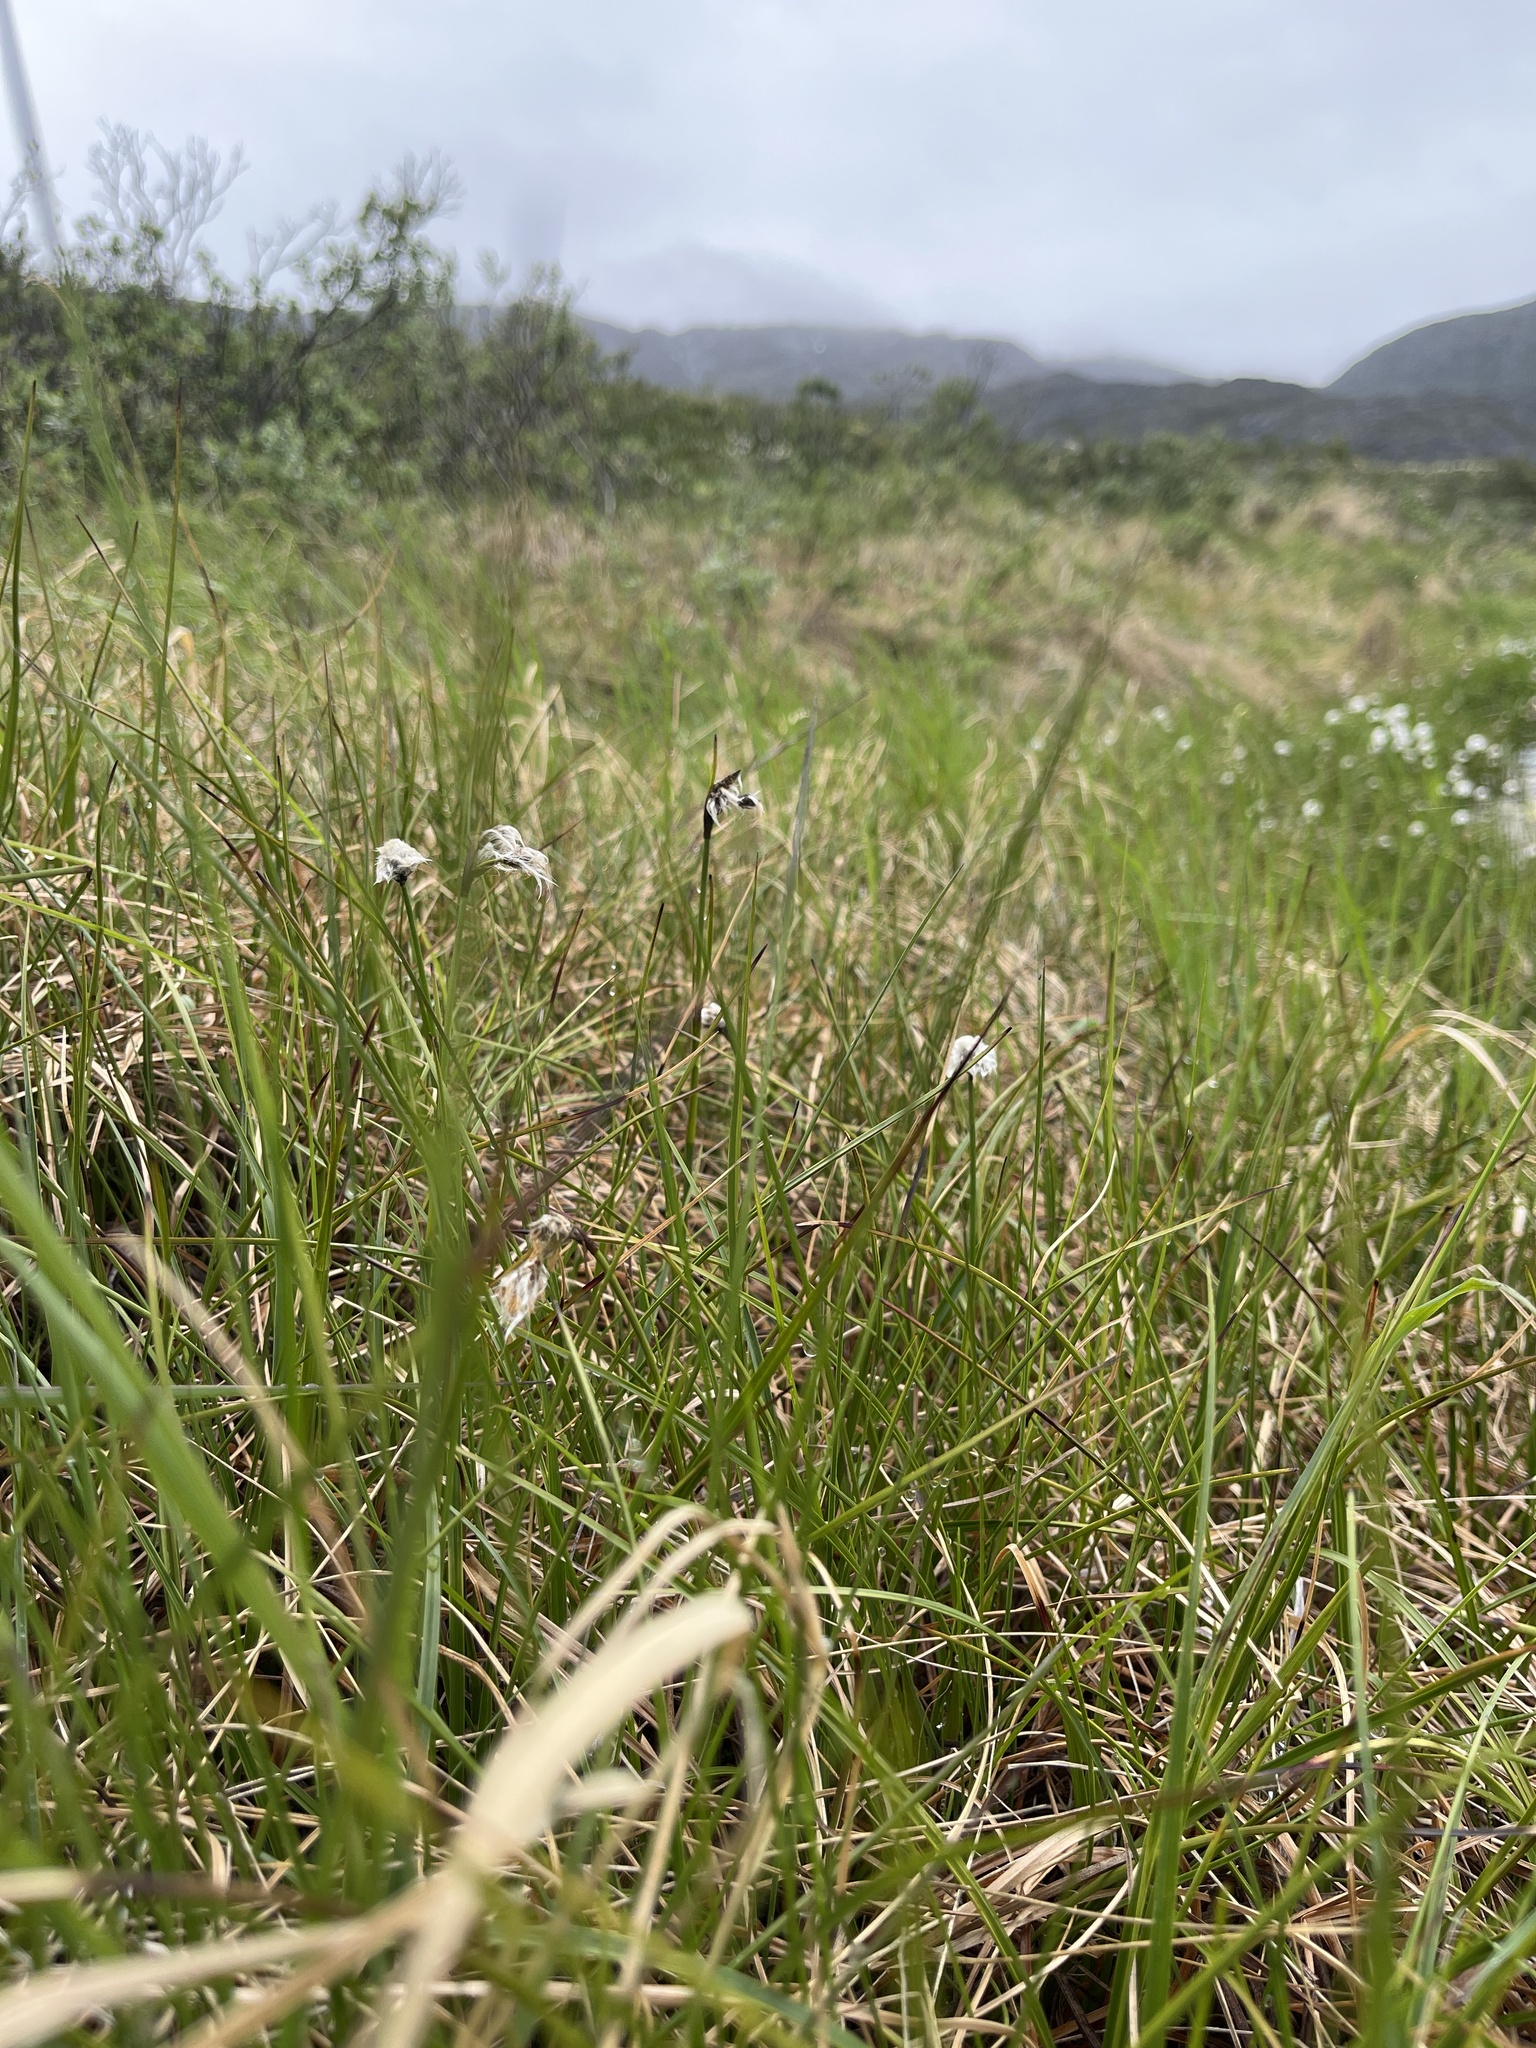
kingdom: Plantae
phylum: Tracheophyta
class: Liliopsida
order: Poales
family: Cyperaceae
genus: Eriophorum
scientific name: Eriophorum angustifolium
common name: Common cottongrass
